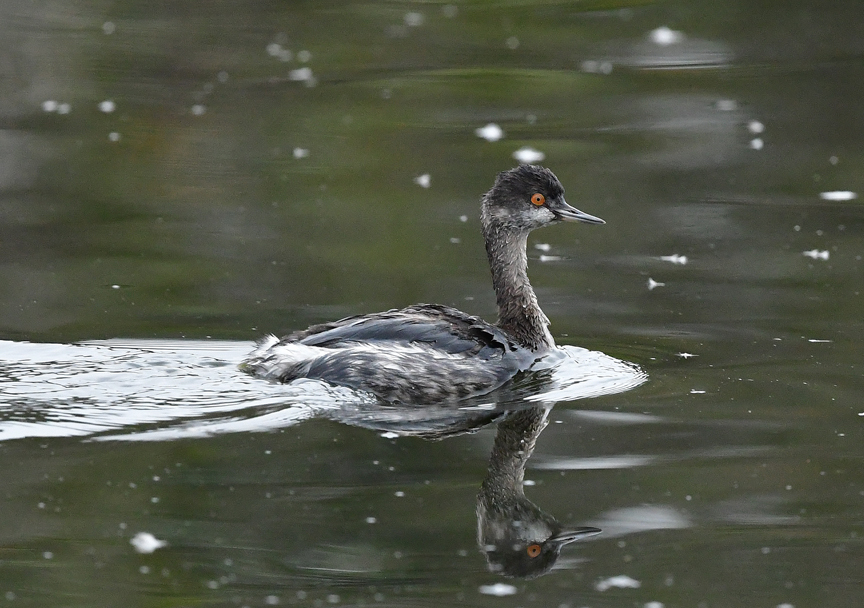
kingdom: Animalia
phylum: Chordata
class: Aves
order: Podicipediformes
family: Podicipedidae
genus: Podiceps
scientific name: Podiceps nigricollis
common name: Black-necked grebe
